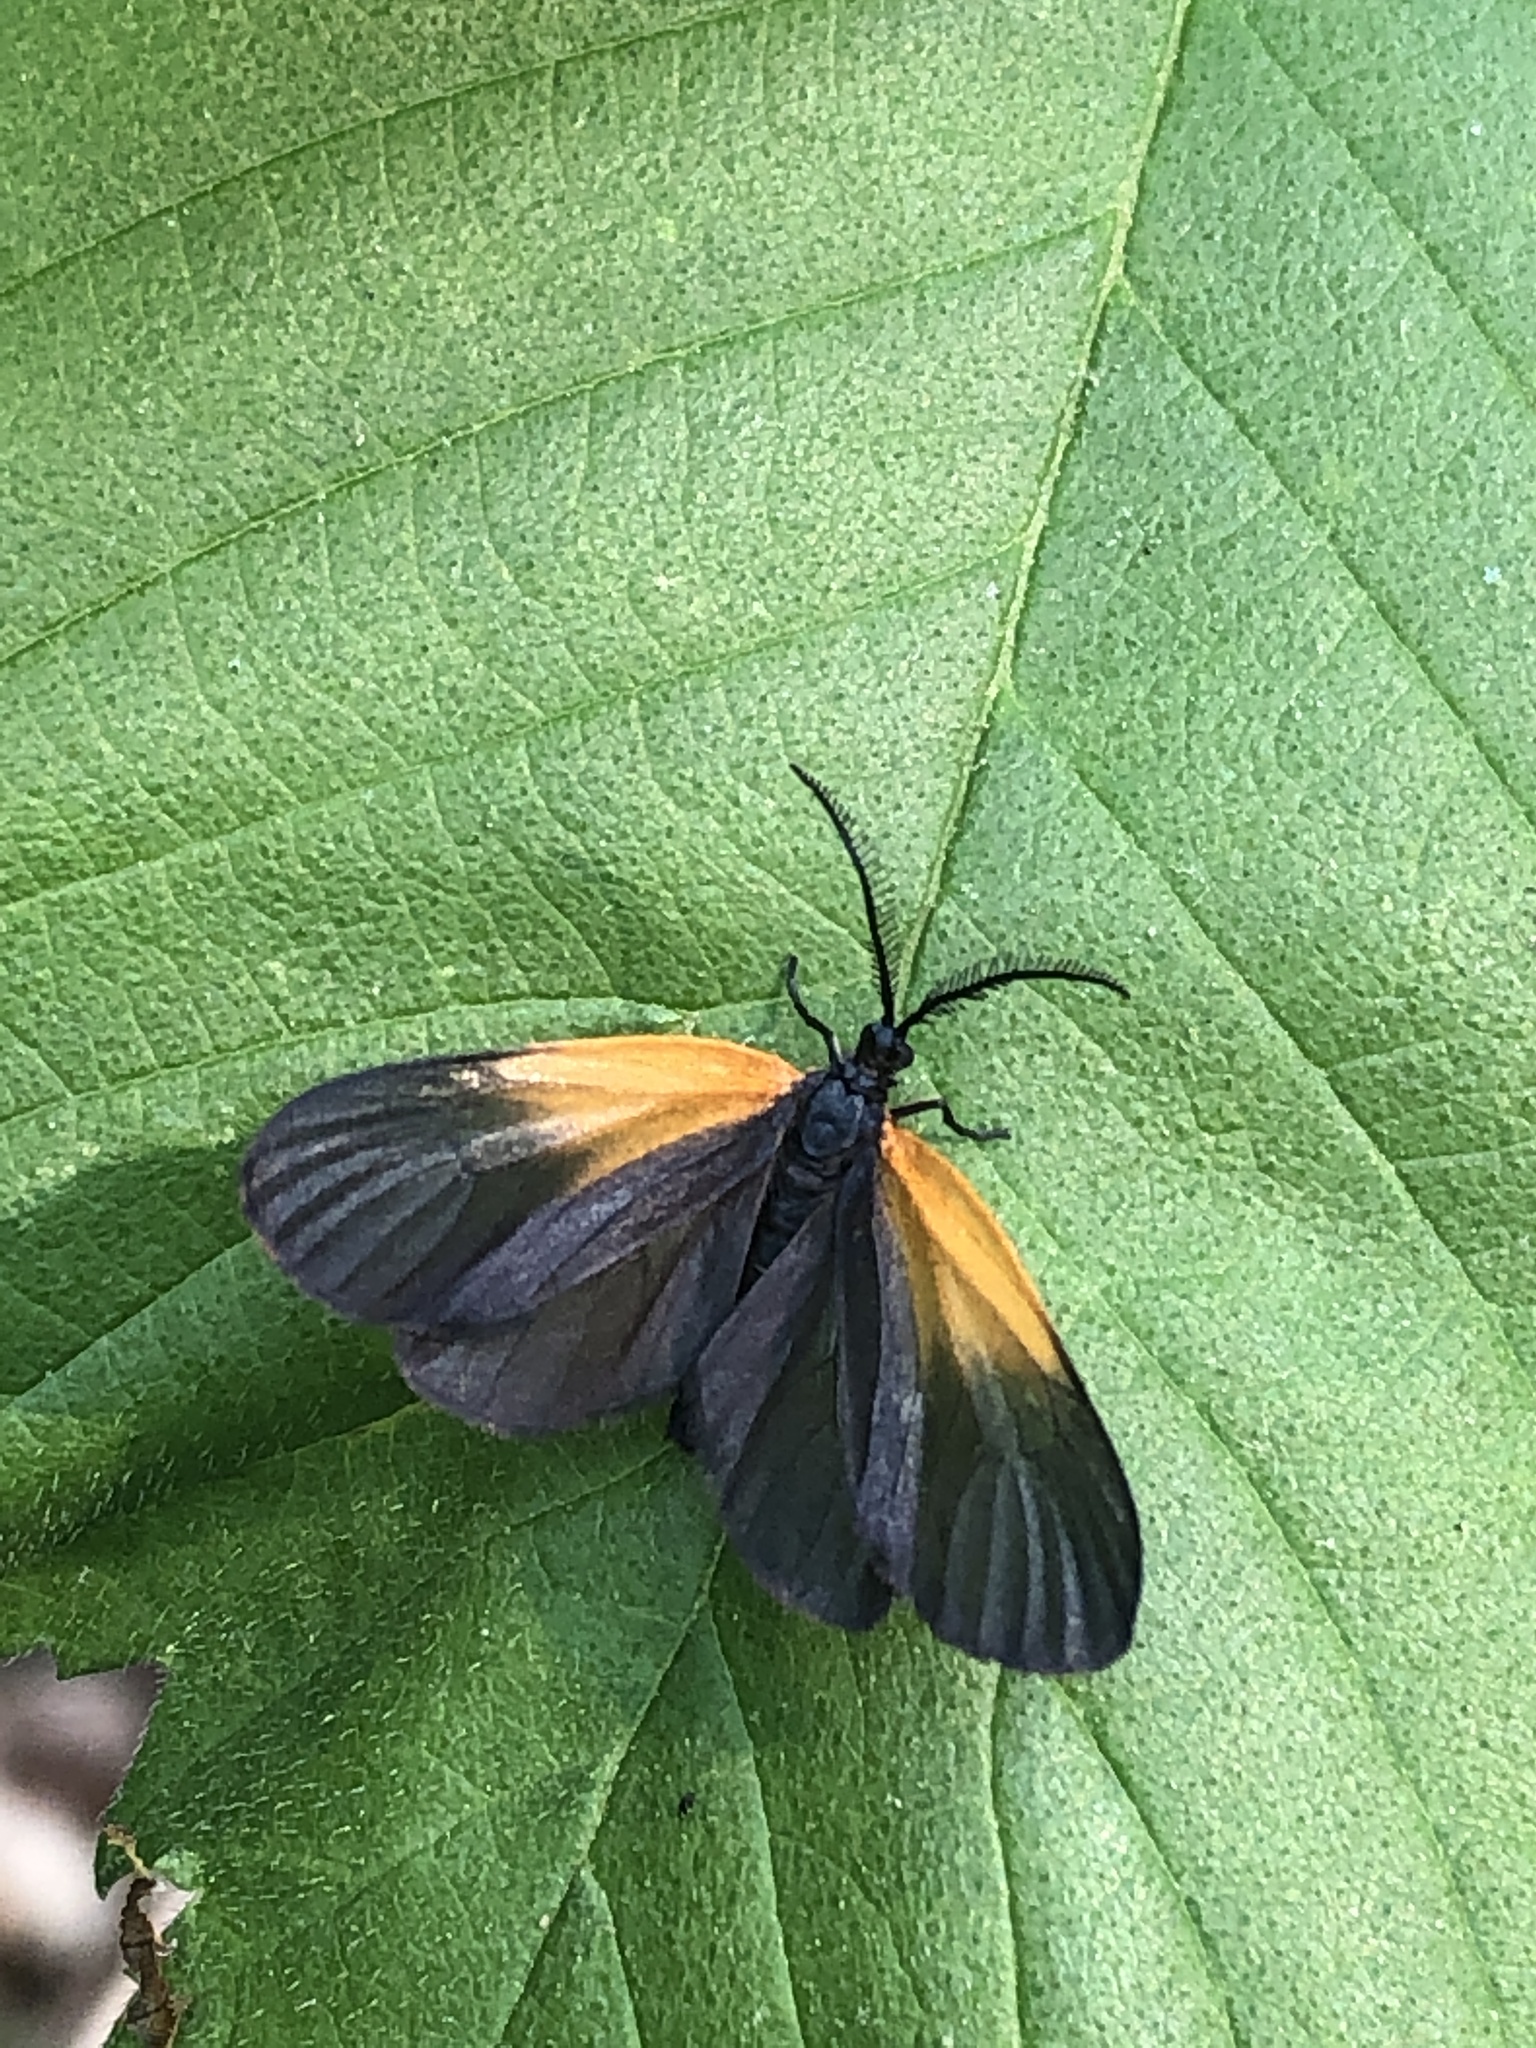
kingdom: Animalia
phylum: Arthropoda
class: Insecta
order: Lepidoptera
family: Zygaenidae
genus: Malthaca
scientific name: Malthaca dimidiata
